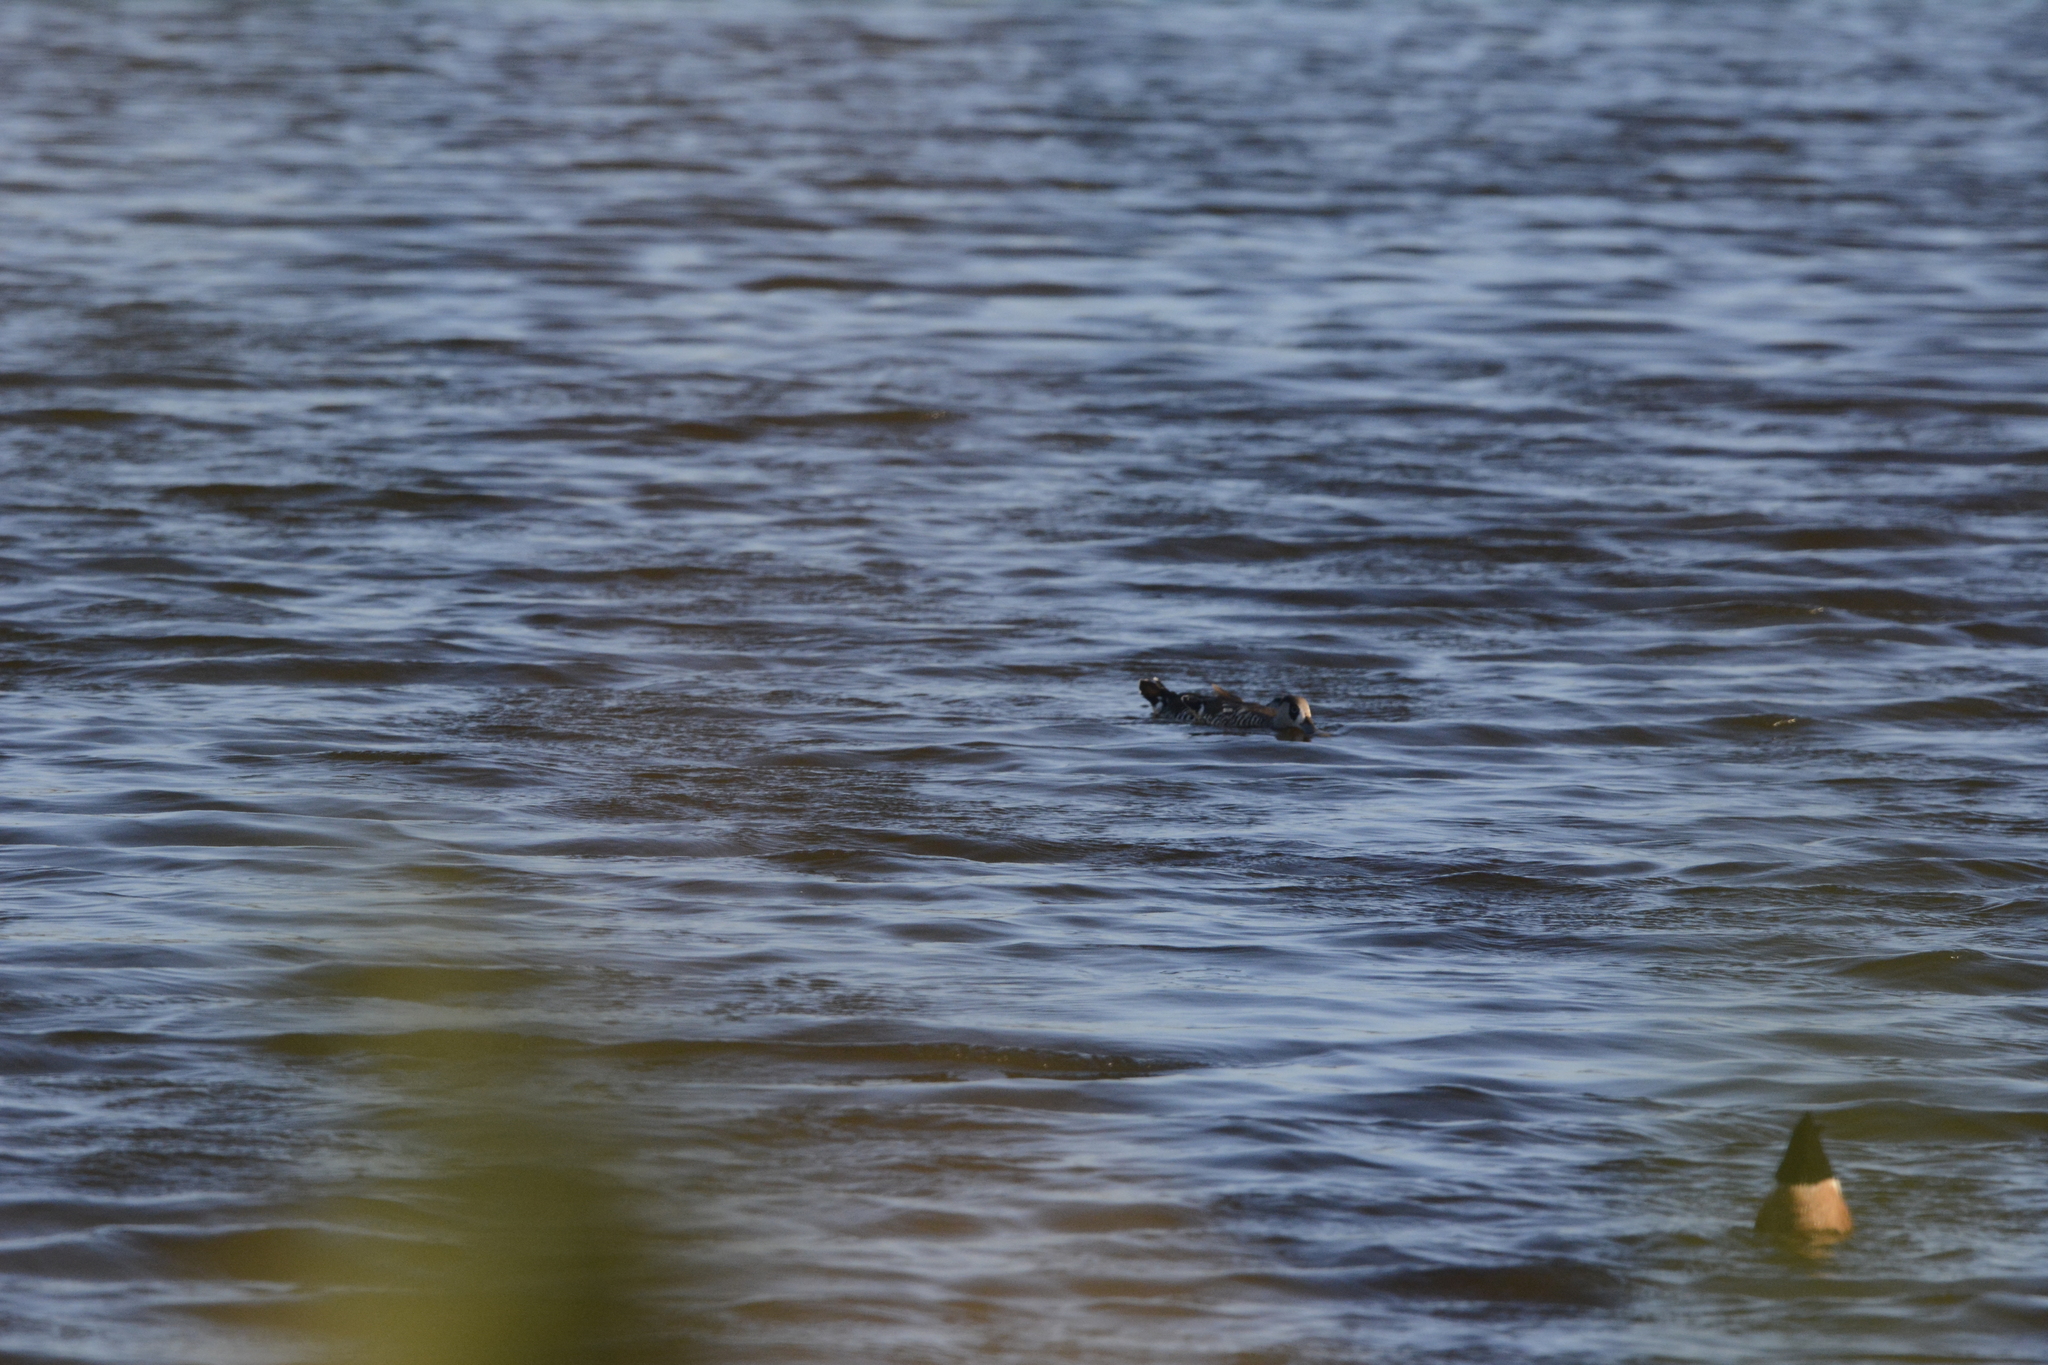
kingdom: Animalia
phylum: Chordata
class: Aves
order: Anseriformes
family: Anatidae
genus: Malacorhynchus
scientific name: Malacorhynchus membranaceus
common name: Pink-eared duck
